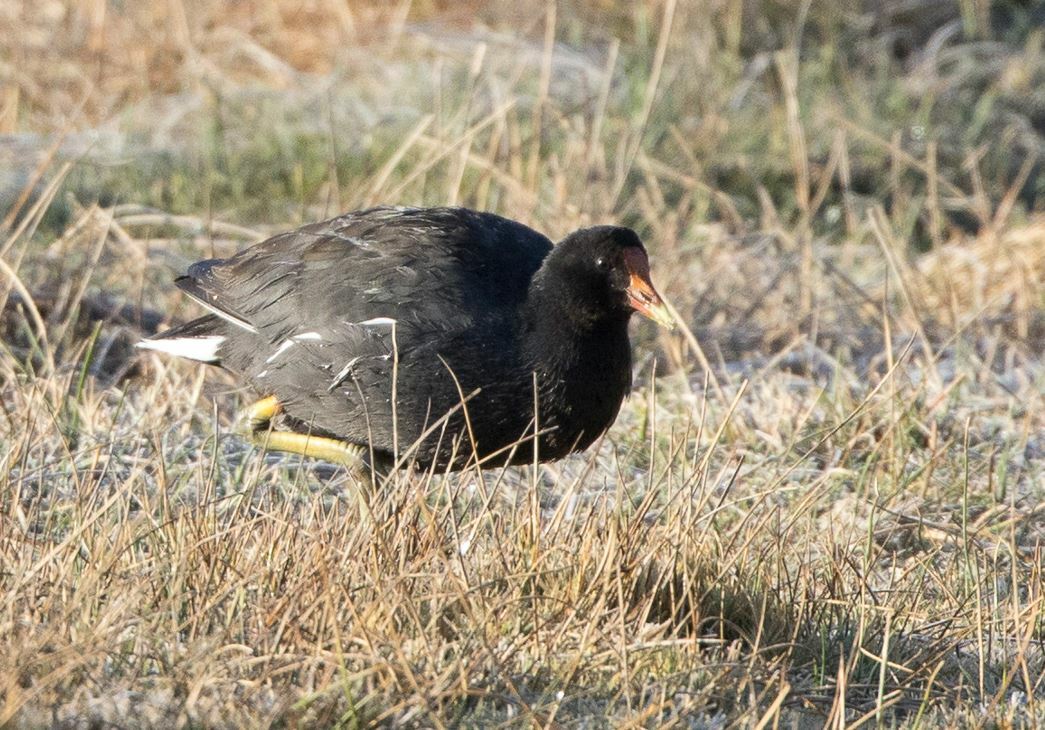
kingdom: Animalia
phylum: Chordata
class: Aves
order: Gruiformes
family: Rallidae
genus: Gallinula
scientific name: Gallinula chloropus
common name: Common moorhen
